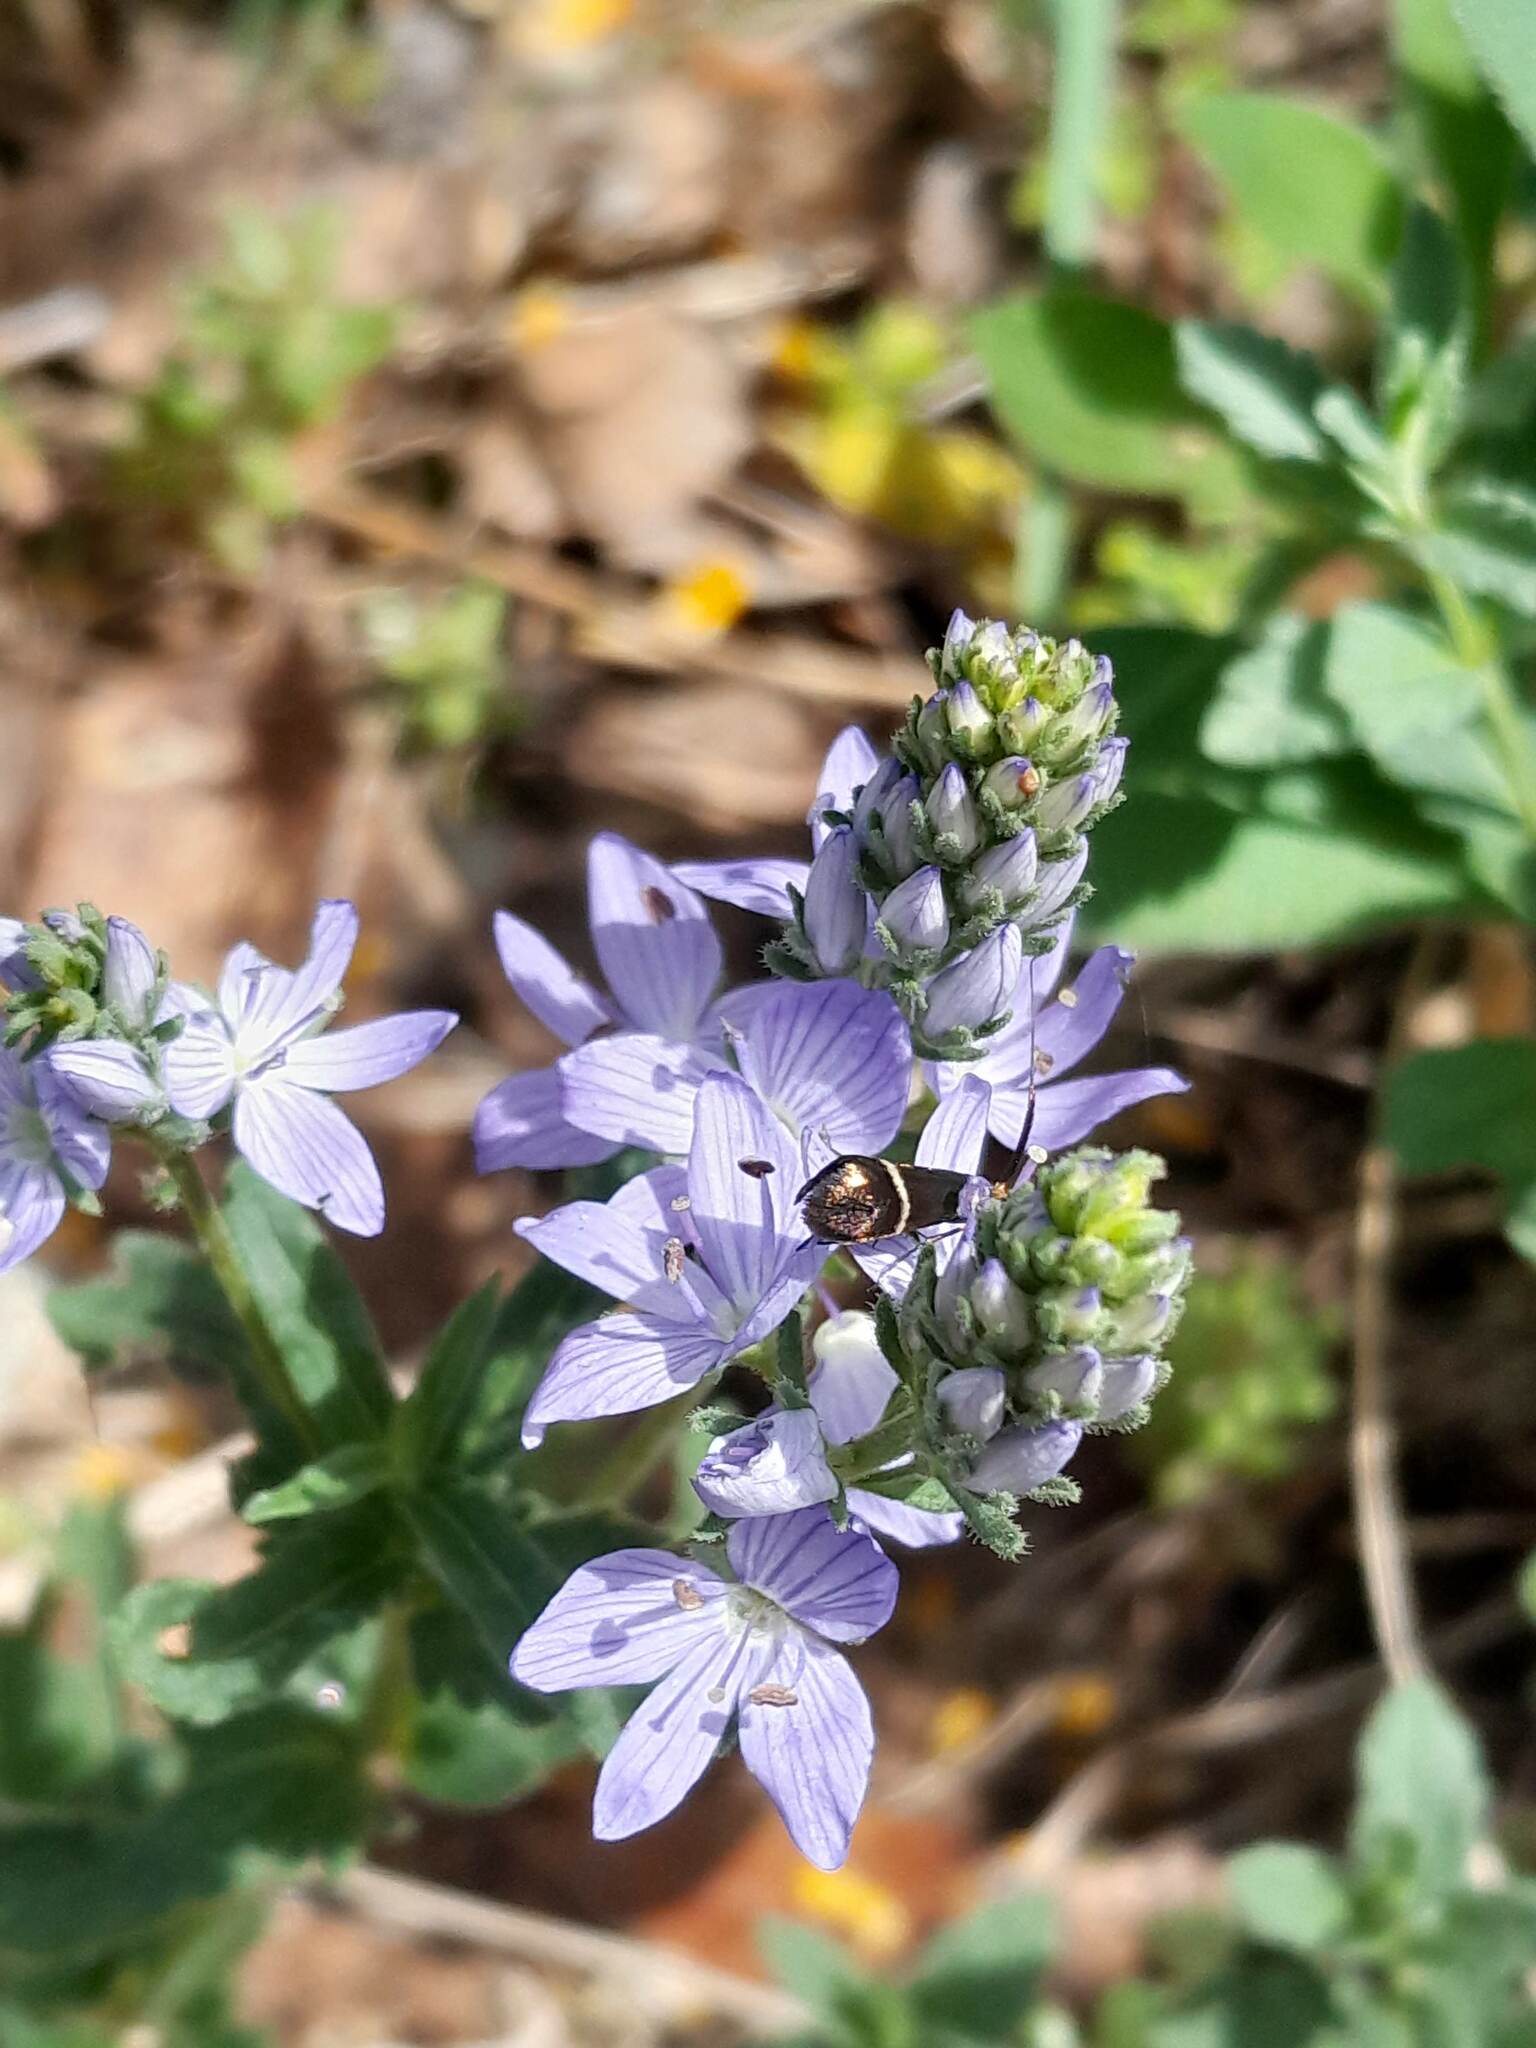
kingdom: Plantae
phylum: Tracheophyta
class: Magnoliopsida
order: Lamiales
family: Plantaginaceae
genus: Veronica
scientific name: Veronica orsiniana
